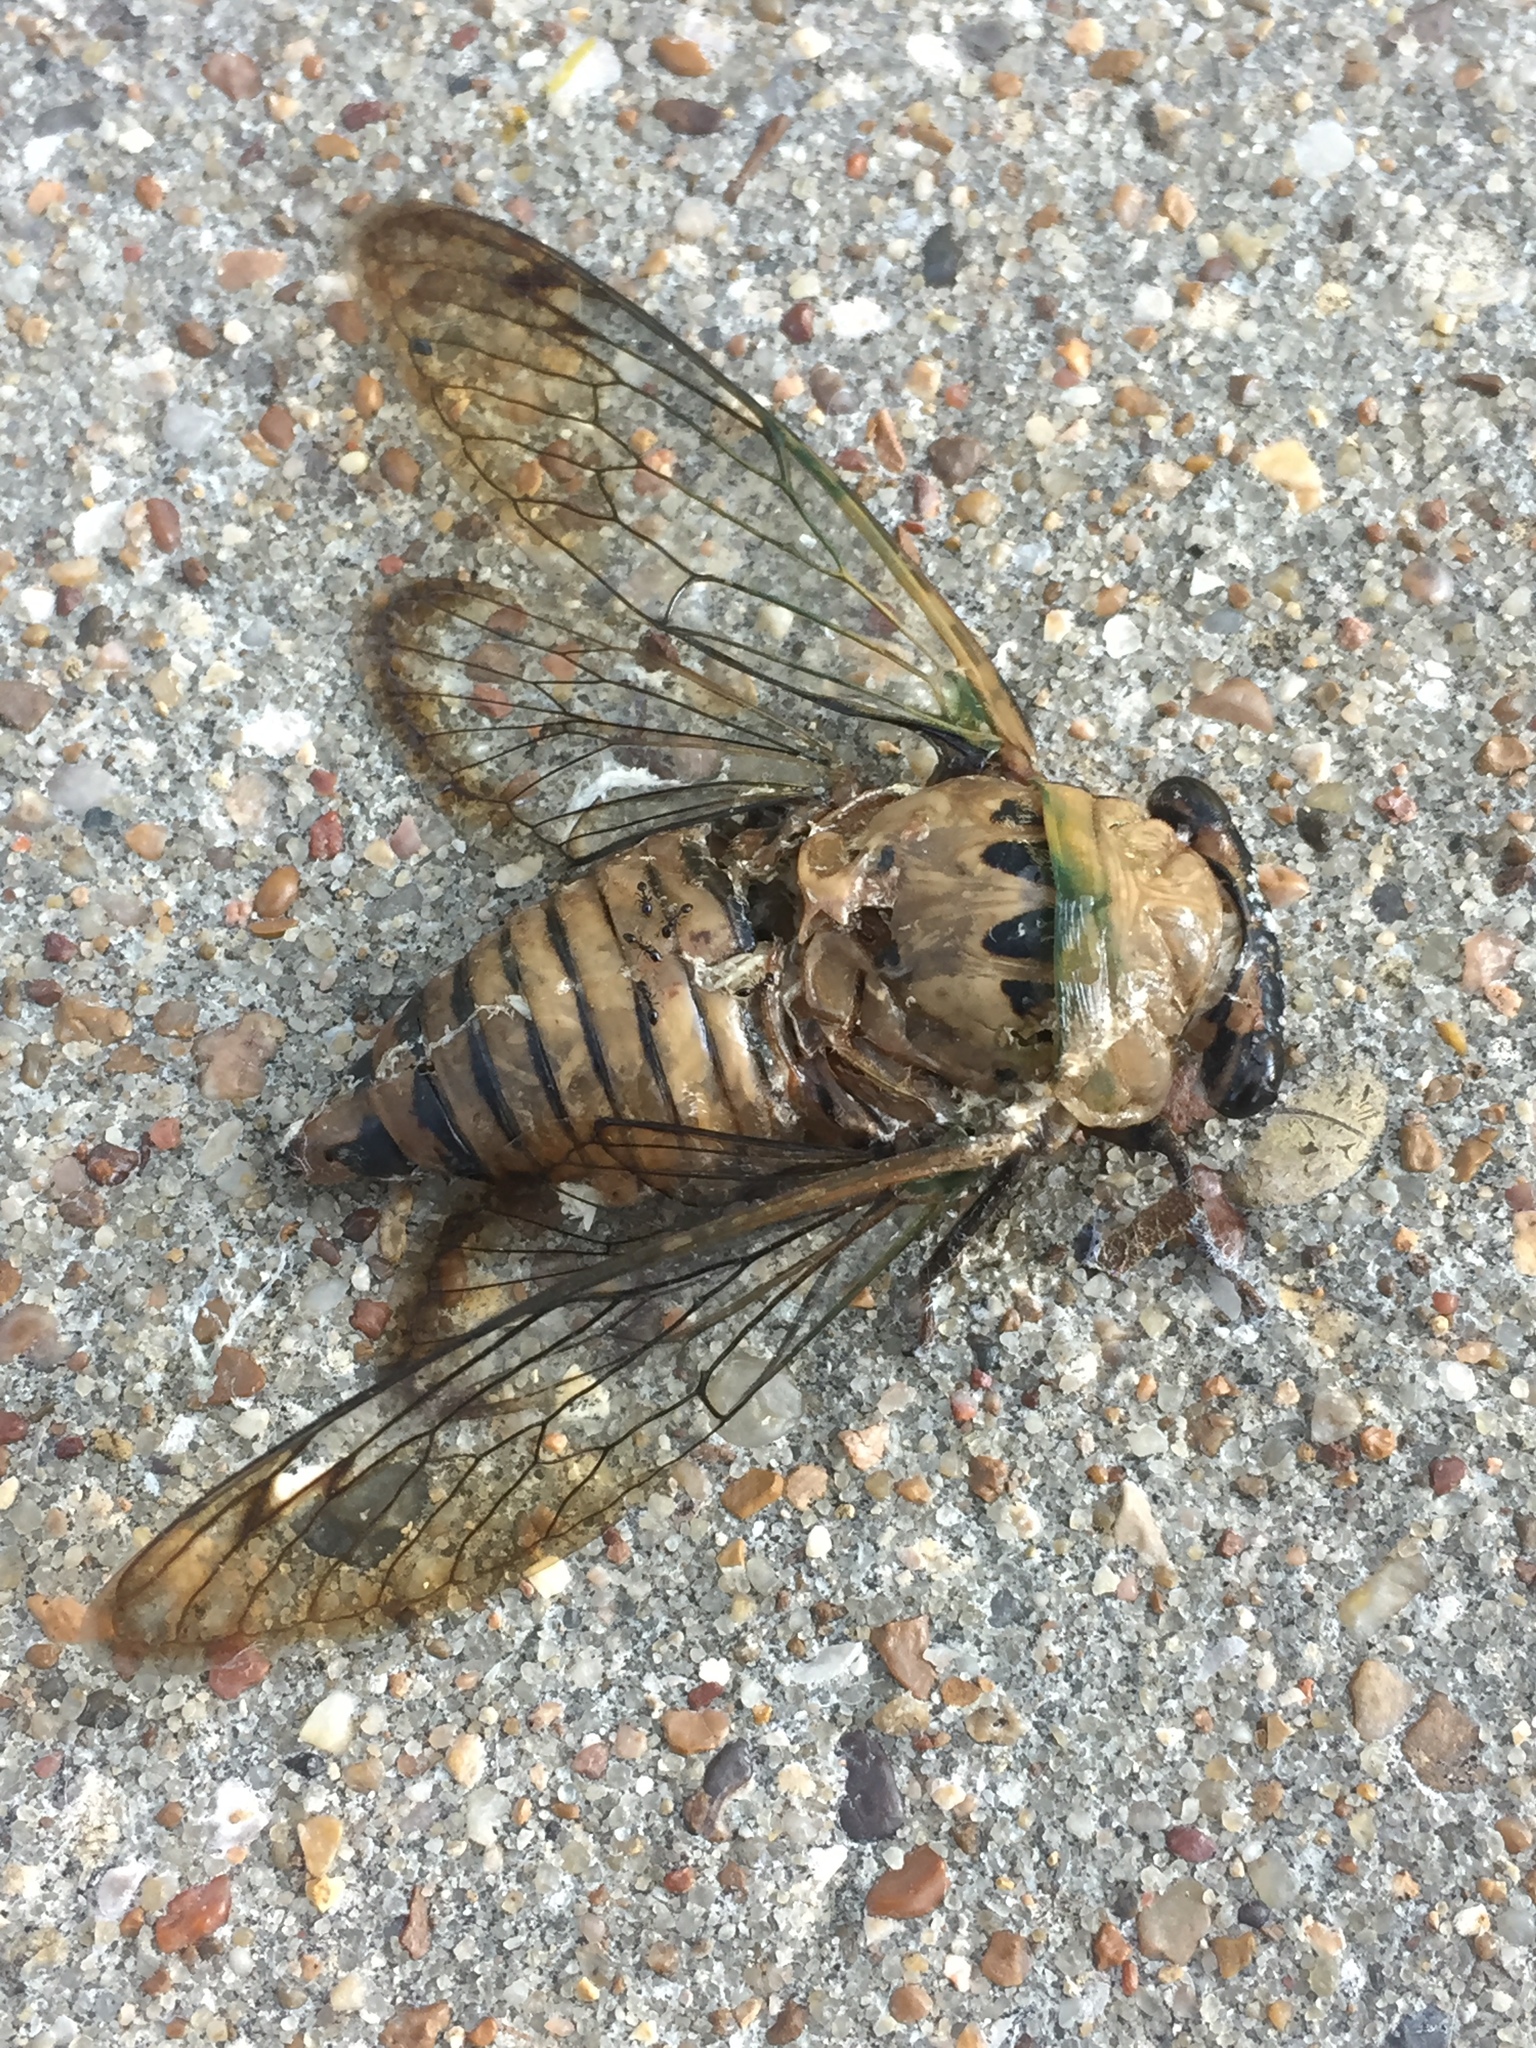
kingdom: Animalia
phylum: Arthropoda
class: Insecta
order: Hemiptera
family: Cicadidae
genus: Neotibicen
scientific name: Neotibicen superbus
